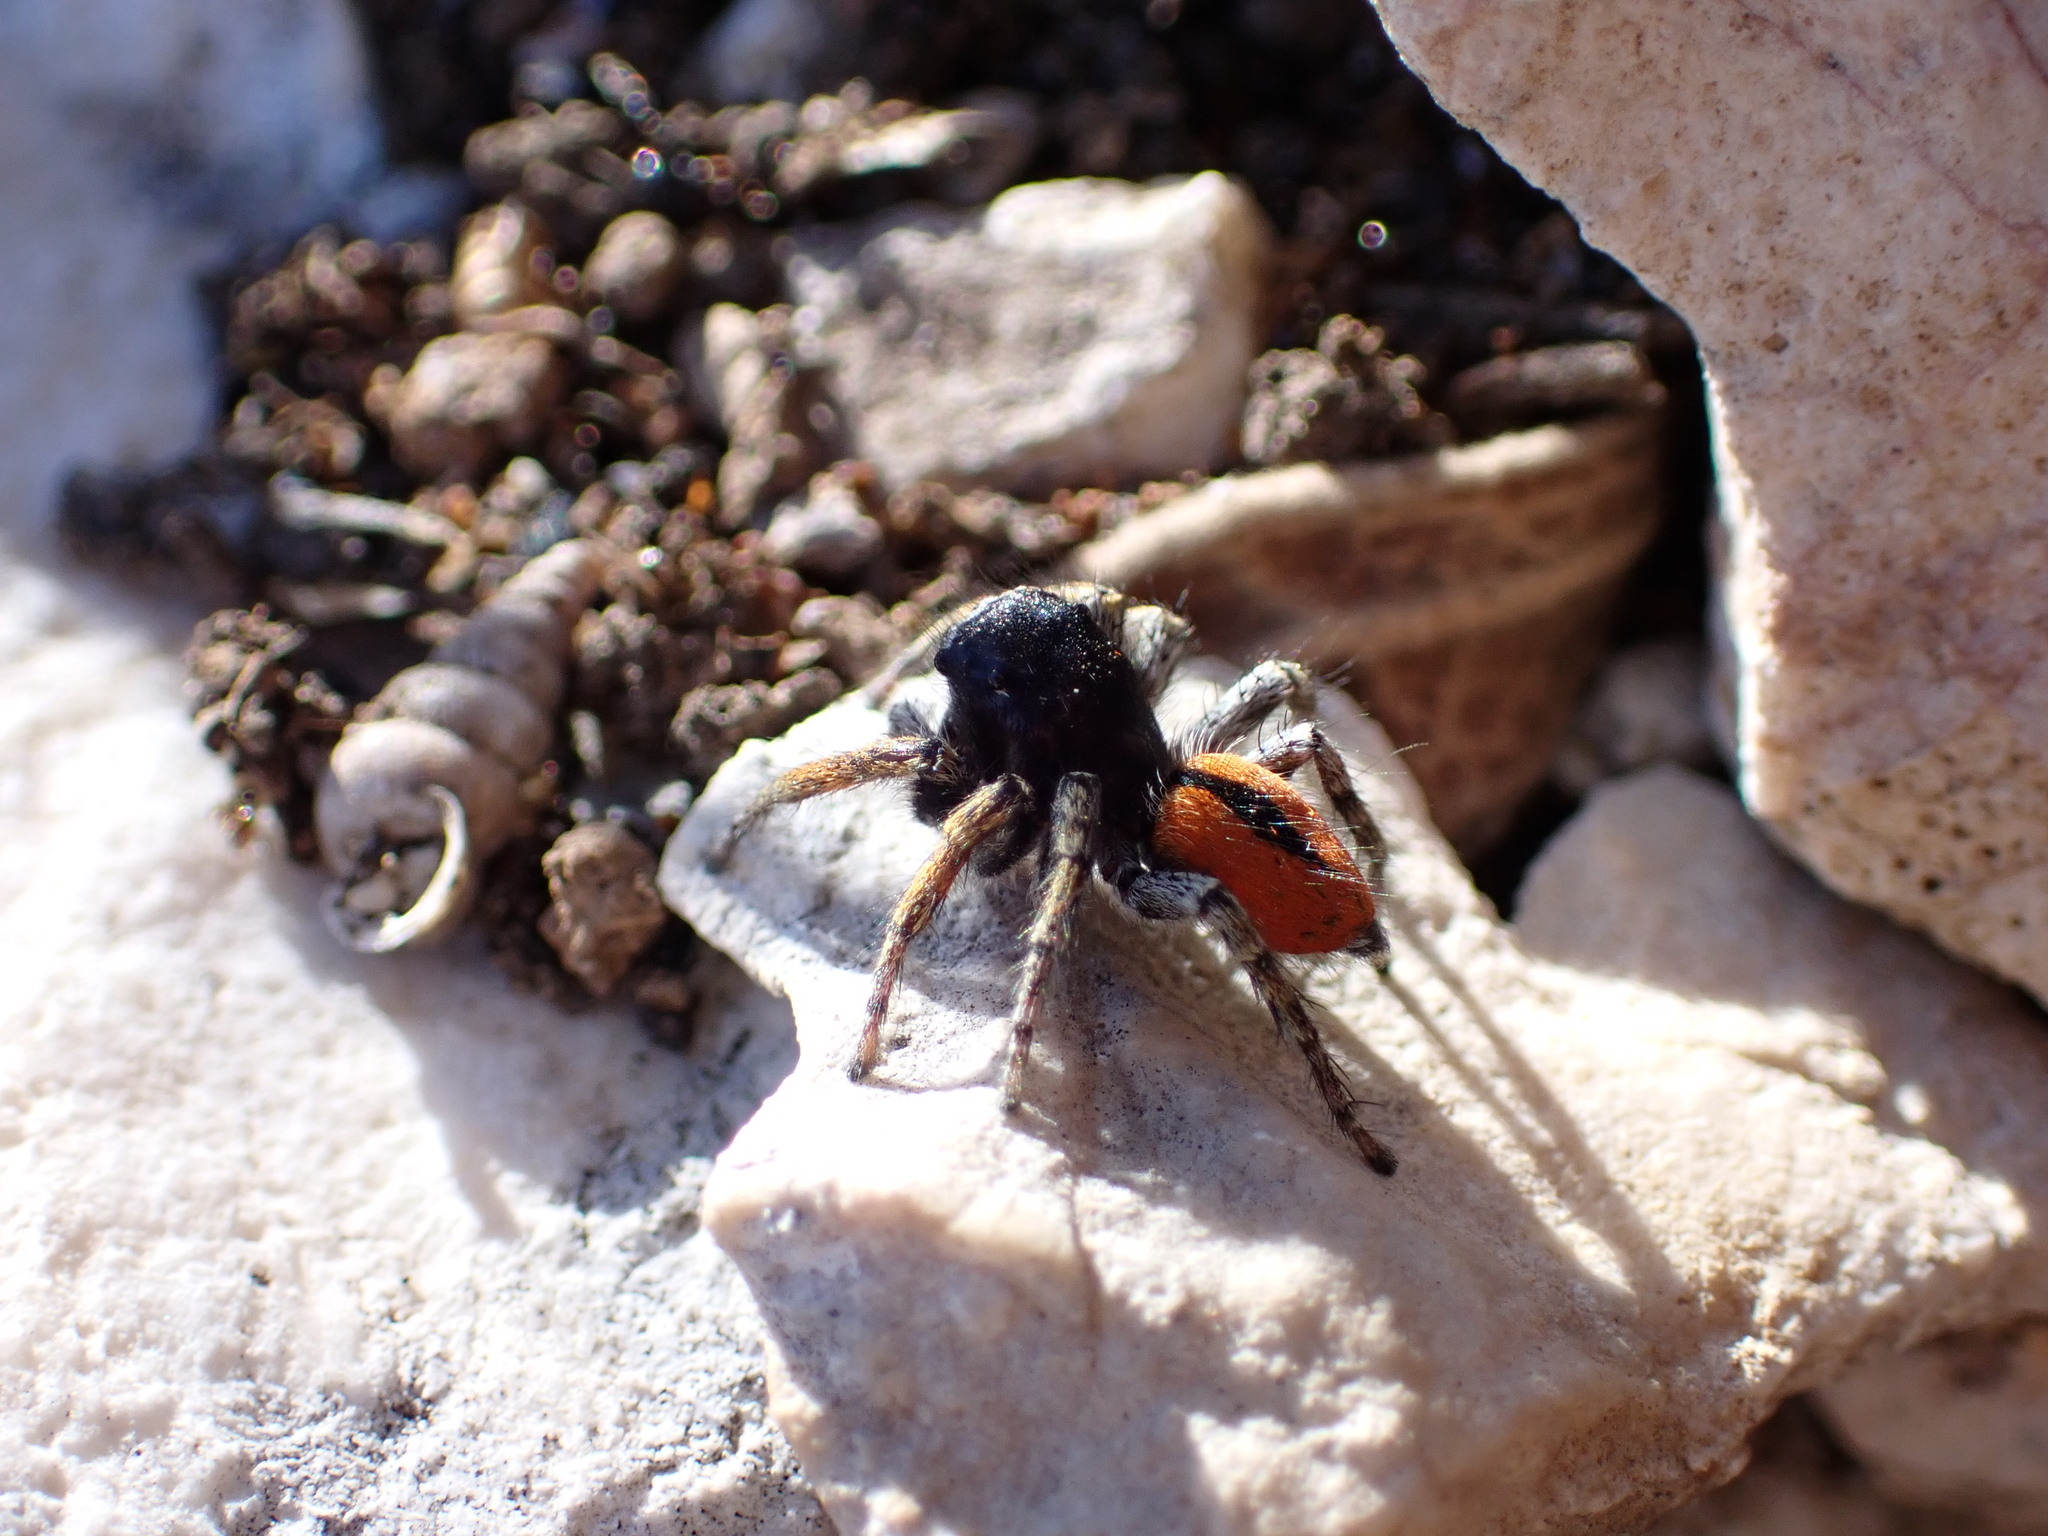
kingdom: Animalia
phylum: Arthropoda
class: Arachnida
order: Araneae
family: Salticidae
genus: Philaeus
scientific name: Philaeus chrysops
